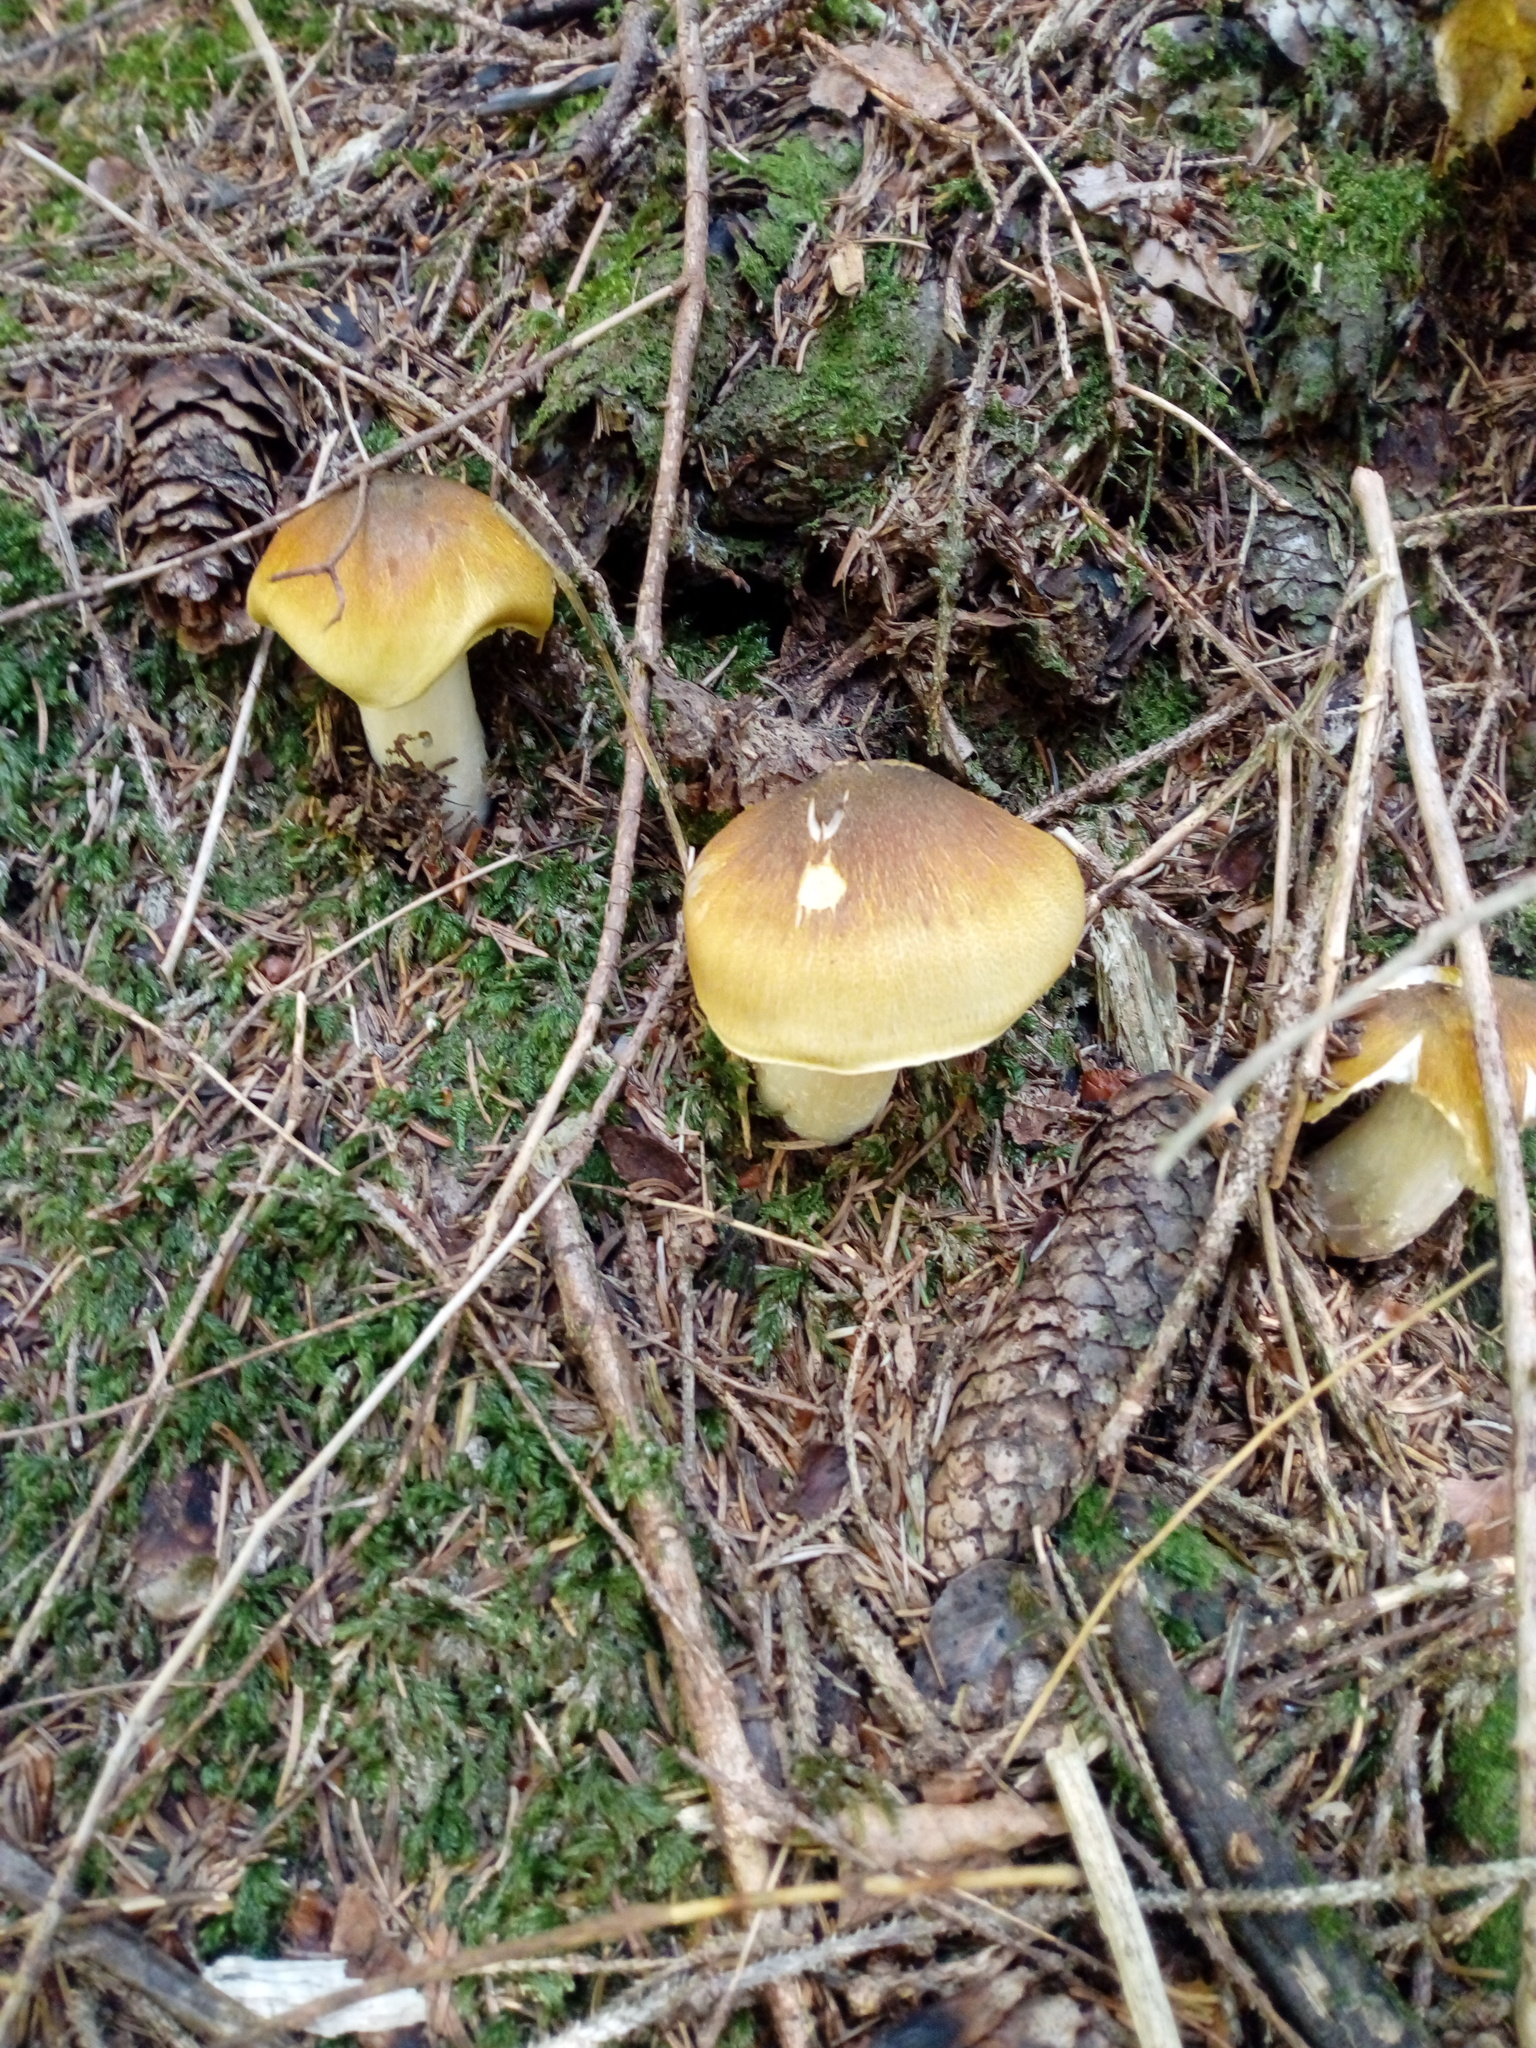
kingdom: Fungi
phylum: Basidiomycota
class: Agaricomycetes
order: Agaricales
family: Tricholomataceae
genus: Tricholoma
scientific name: Tricholoma arvernense
